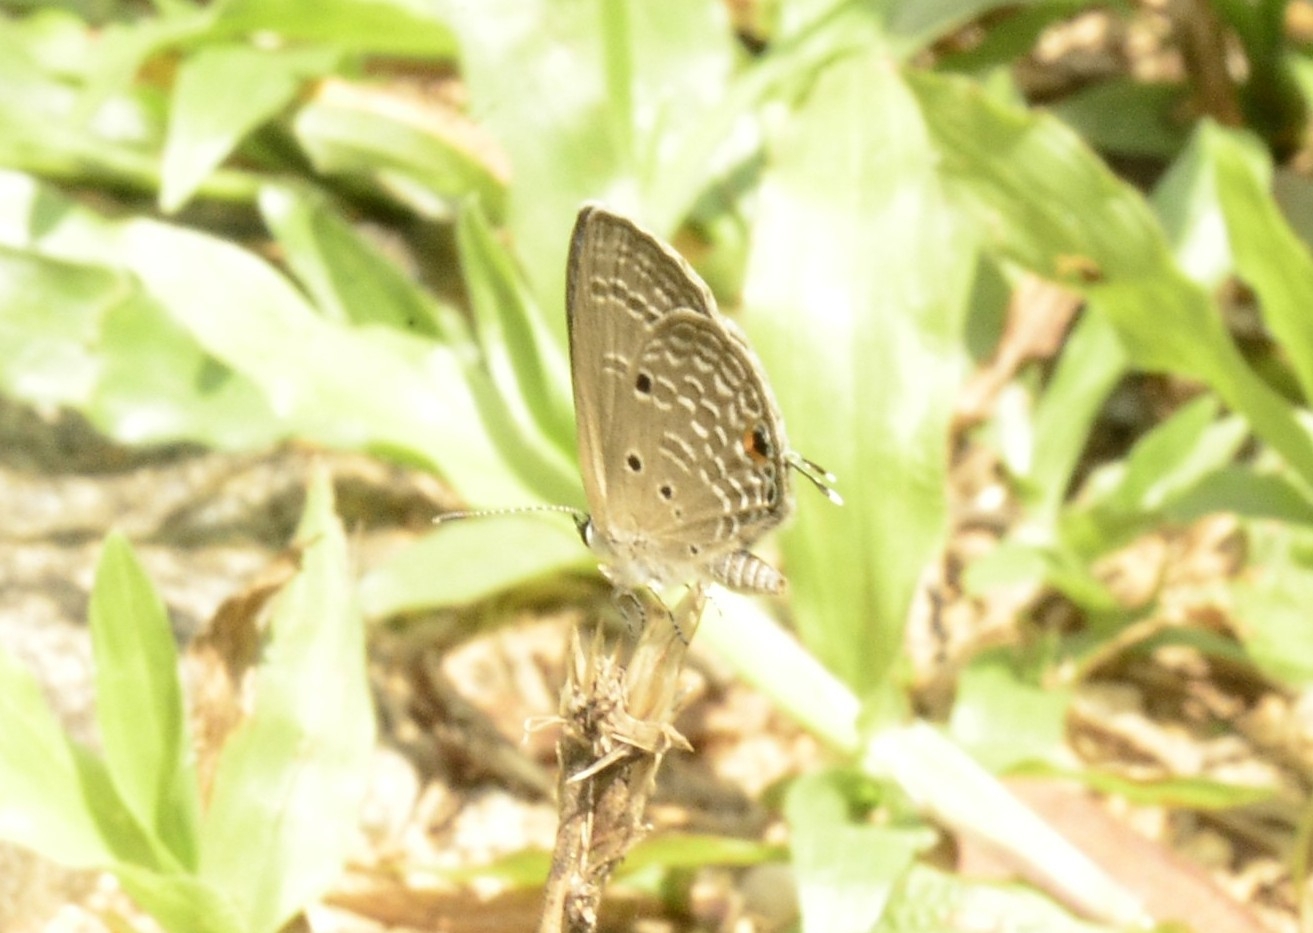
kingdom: Animalia
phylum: Arthropoda
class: Insecta
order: Lepidoptera
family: Lycaenidae
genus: Luthrodes
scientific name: Luthrodes pandava
